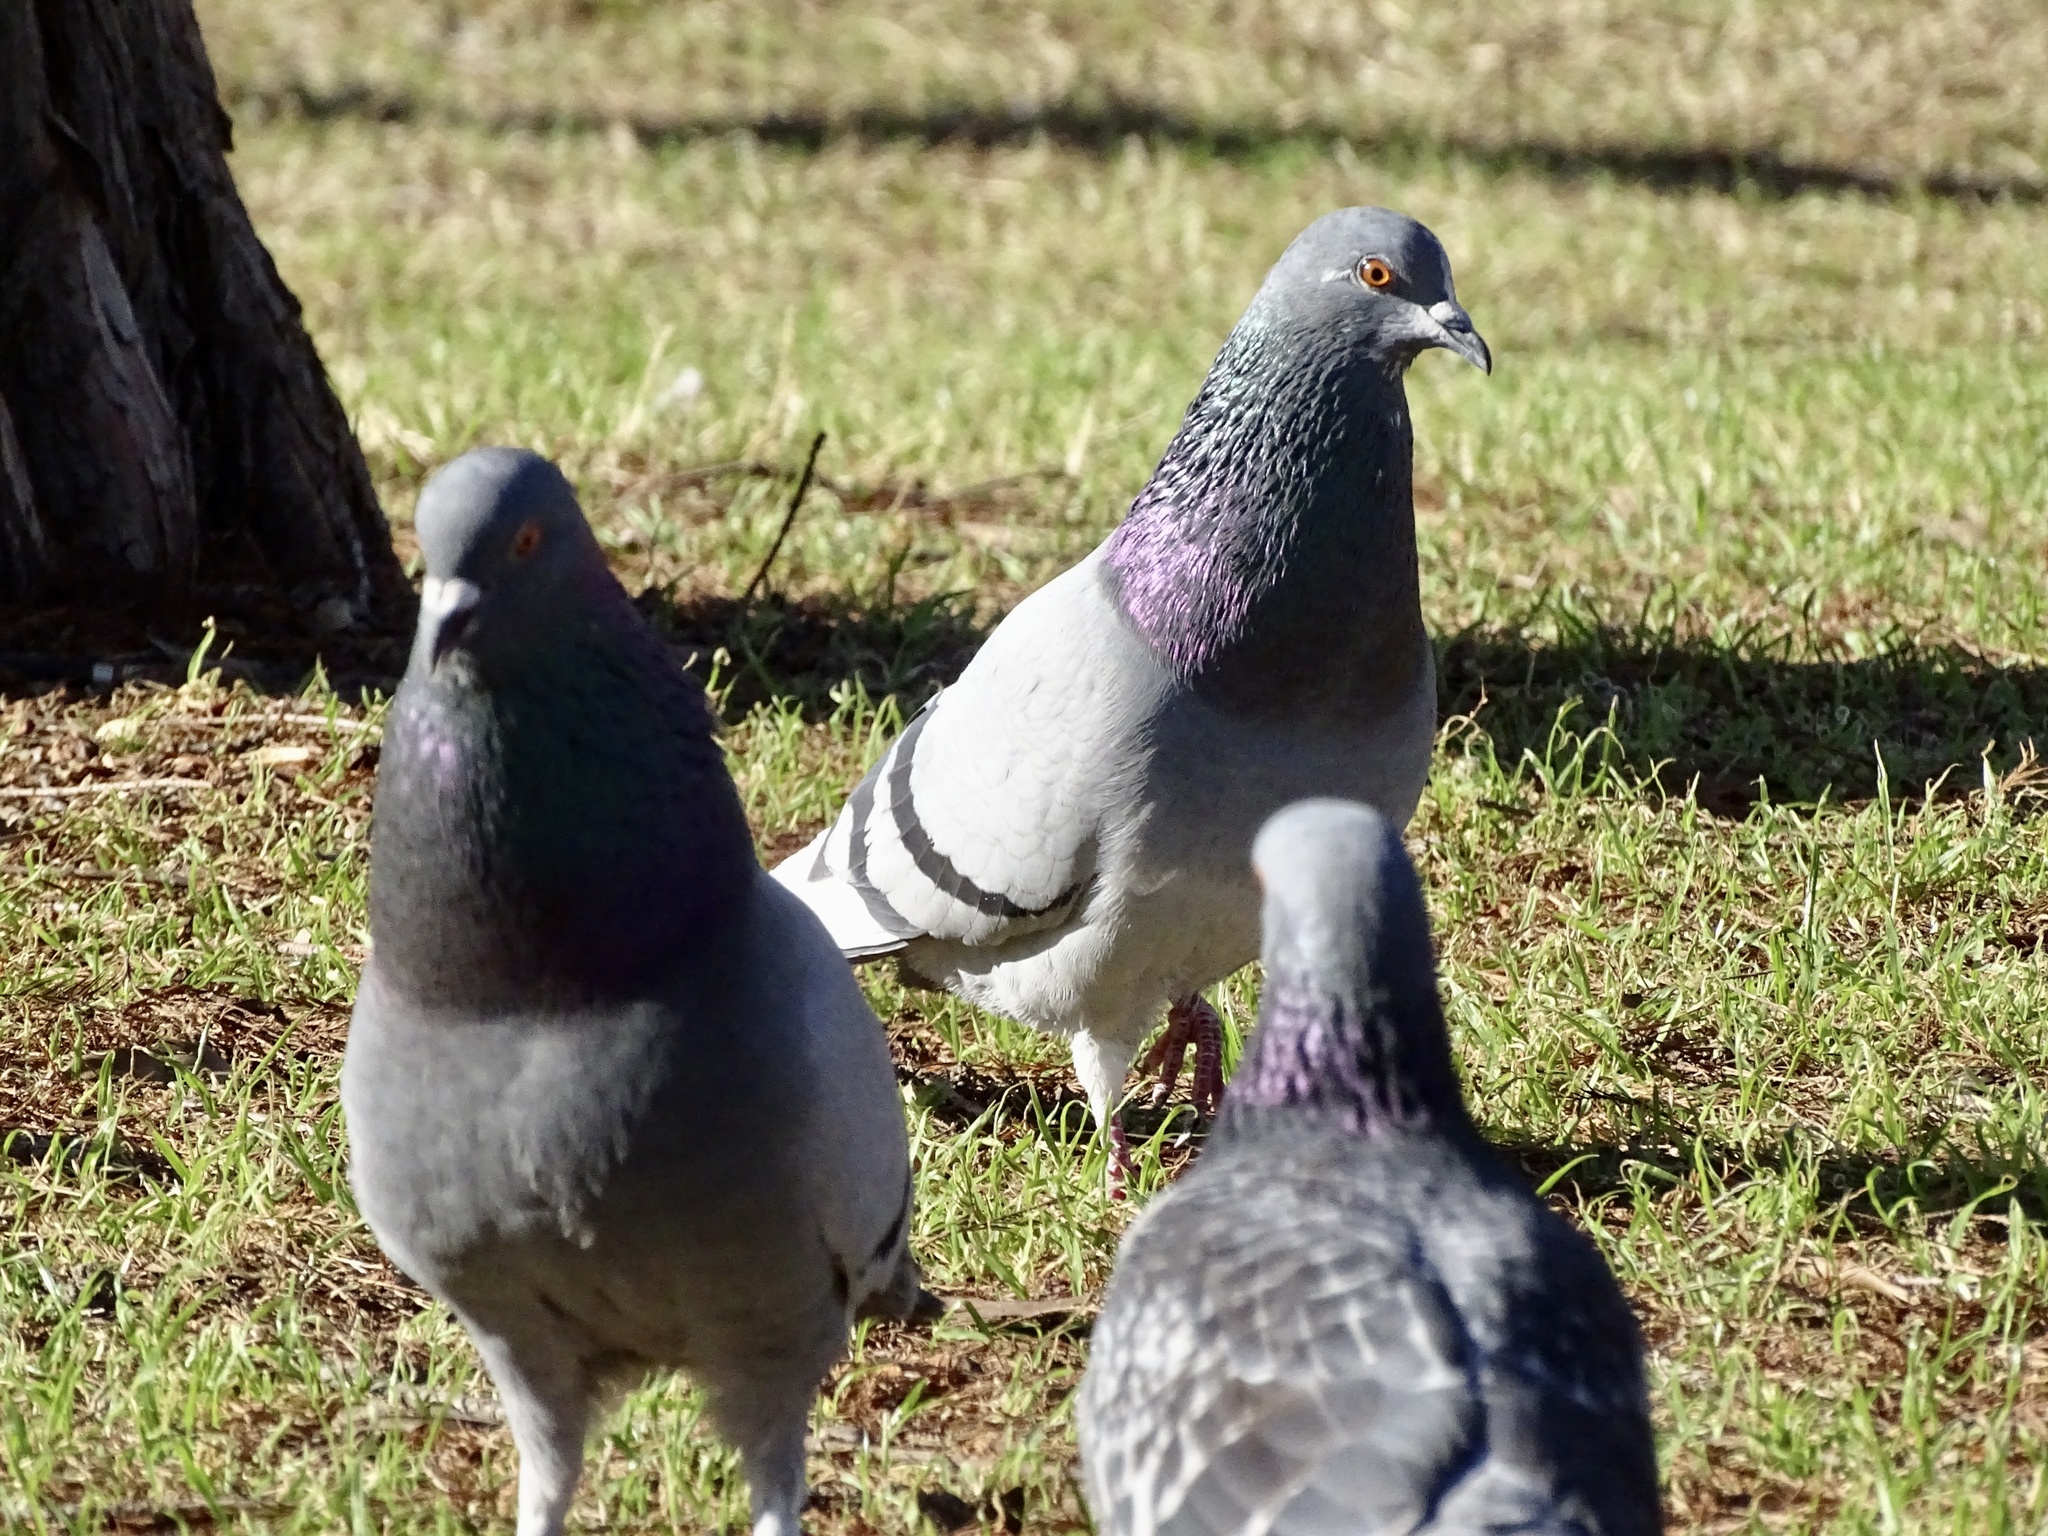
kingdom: Animalia
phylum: Chordata
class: Aves
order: Columbiformes
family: Columbidae
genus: Columba
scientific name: Columba livia
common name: Rock pigeon
